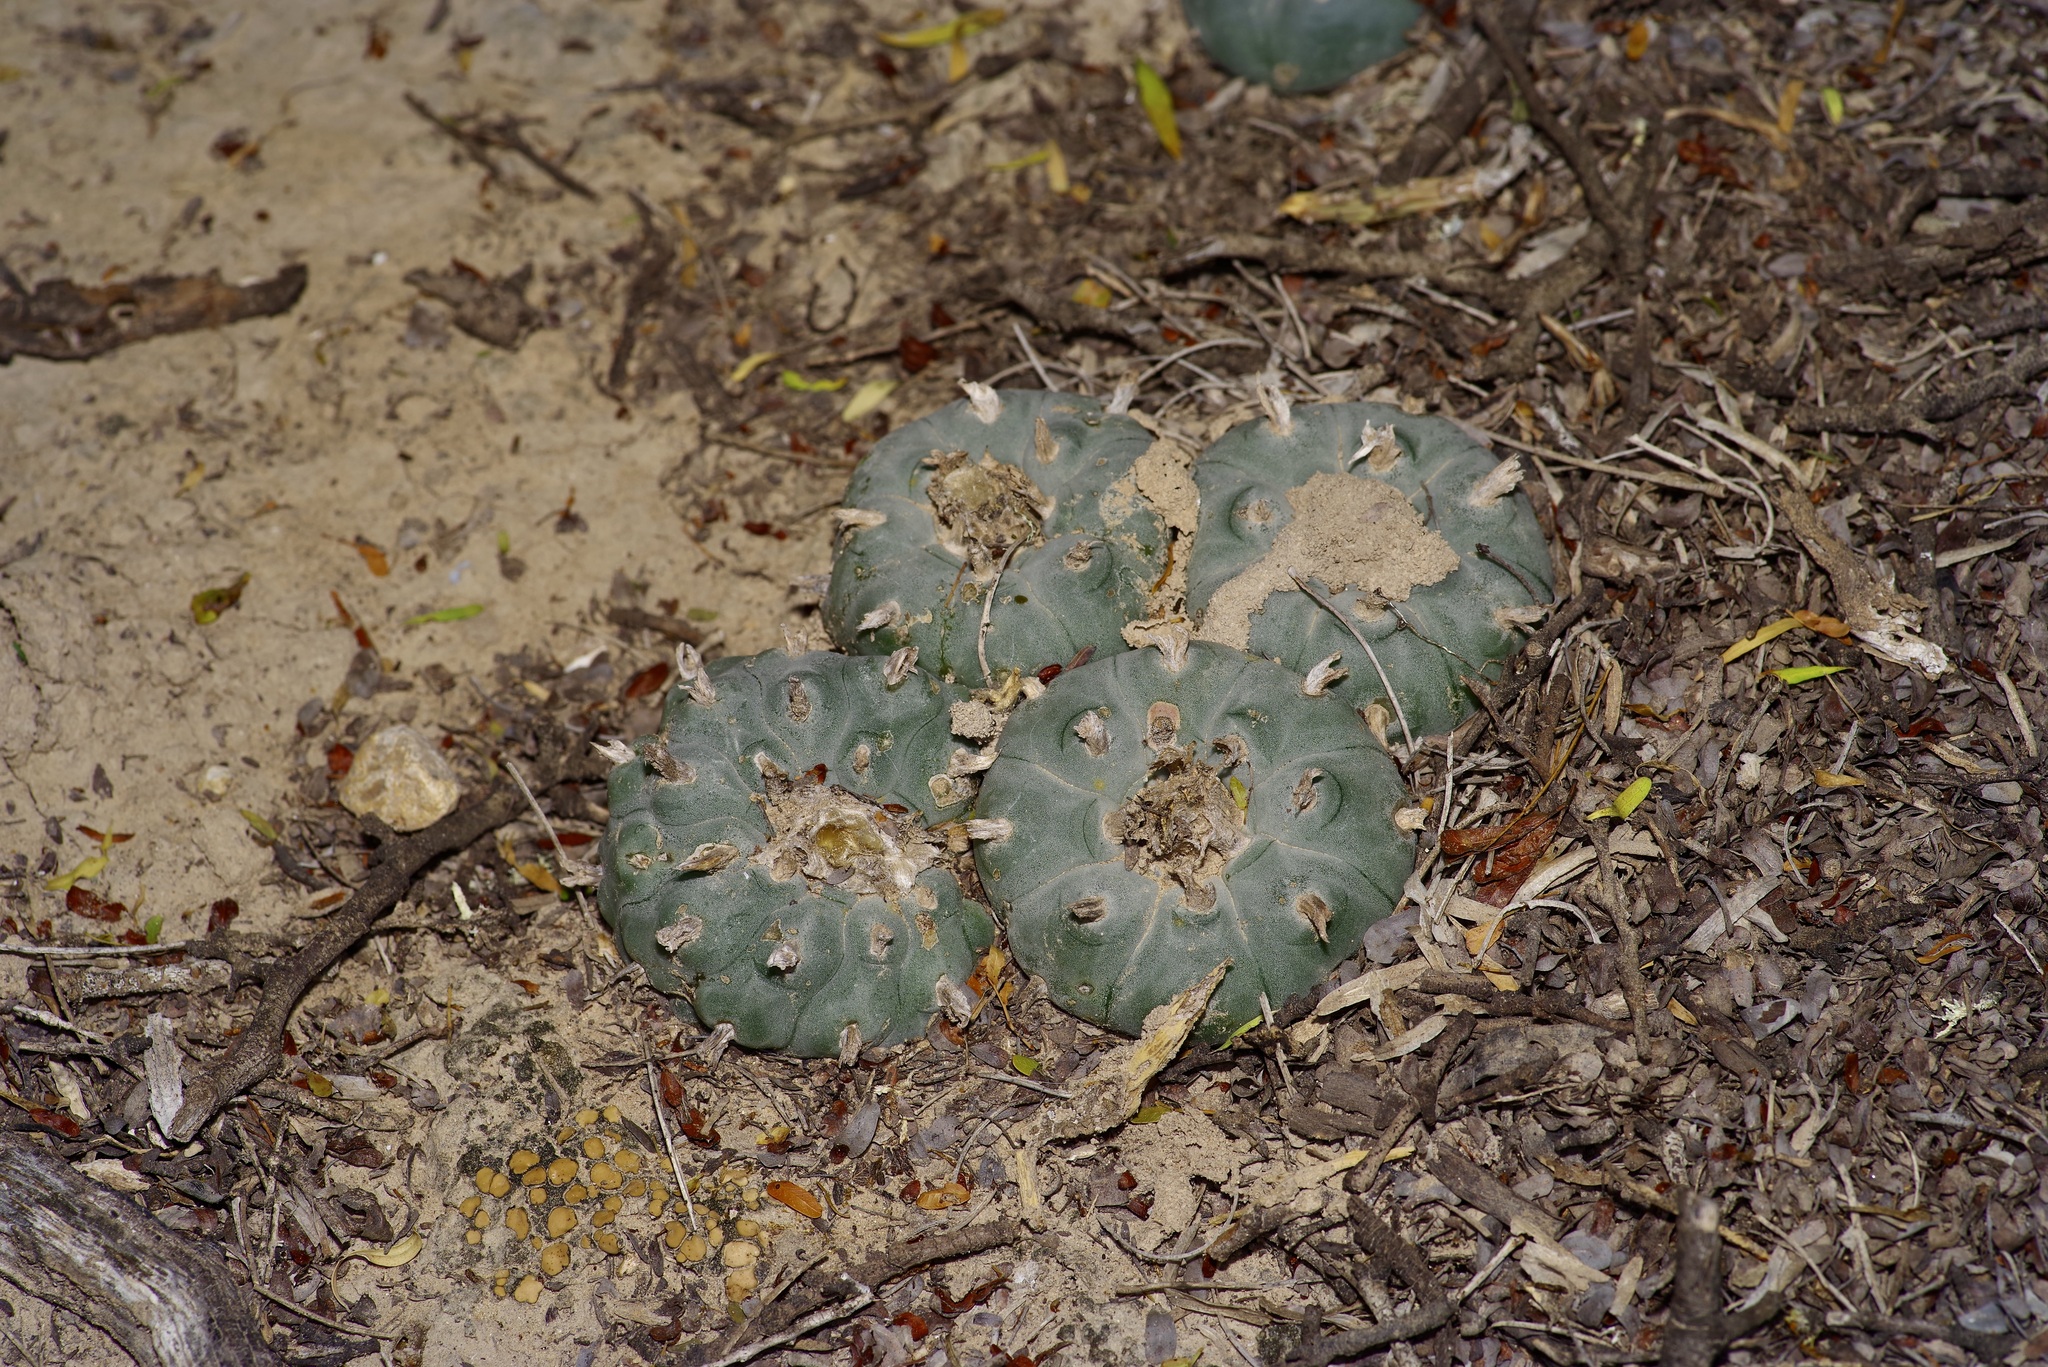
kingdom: Plantae
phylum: Tracheophyta
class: Magnoliopsida
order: Caryophyllales
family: Cactaceae
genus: Lophophora
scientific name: Lophophora williamsii
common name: Indian-dope
